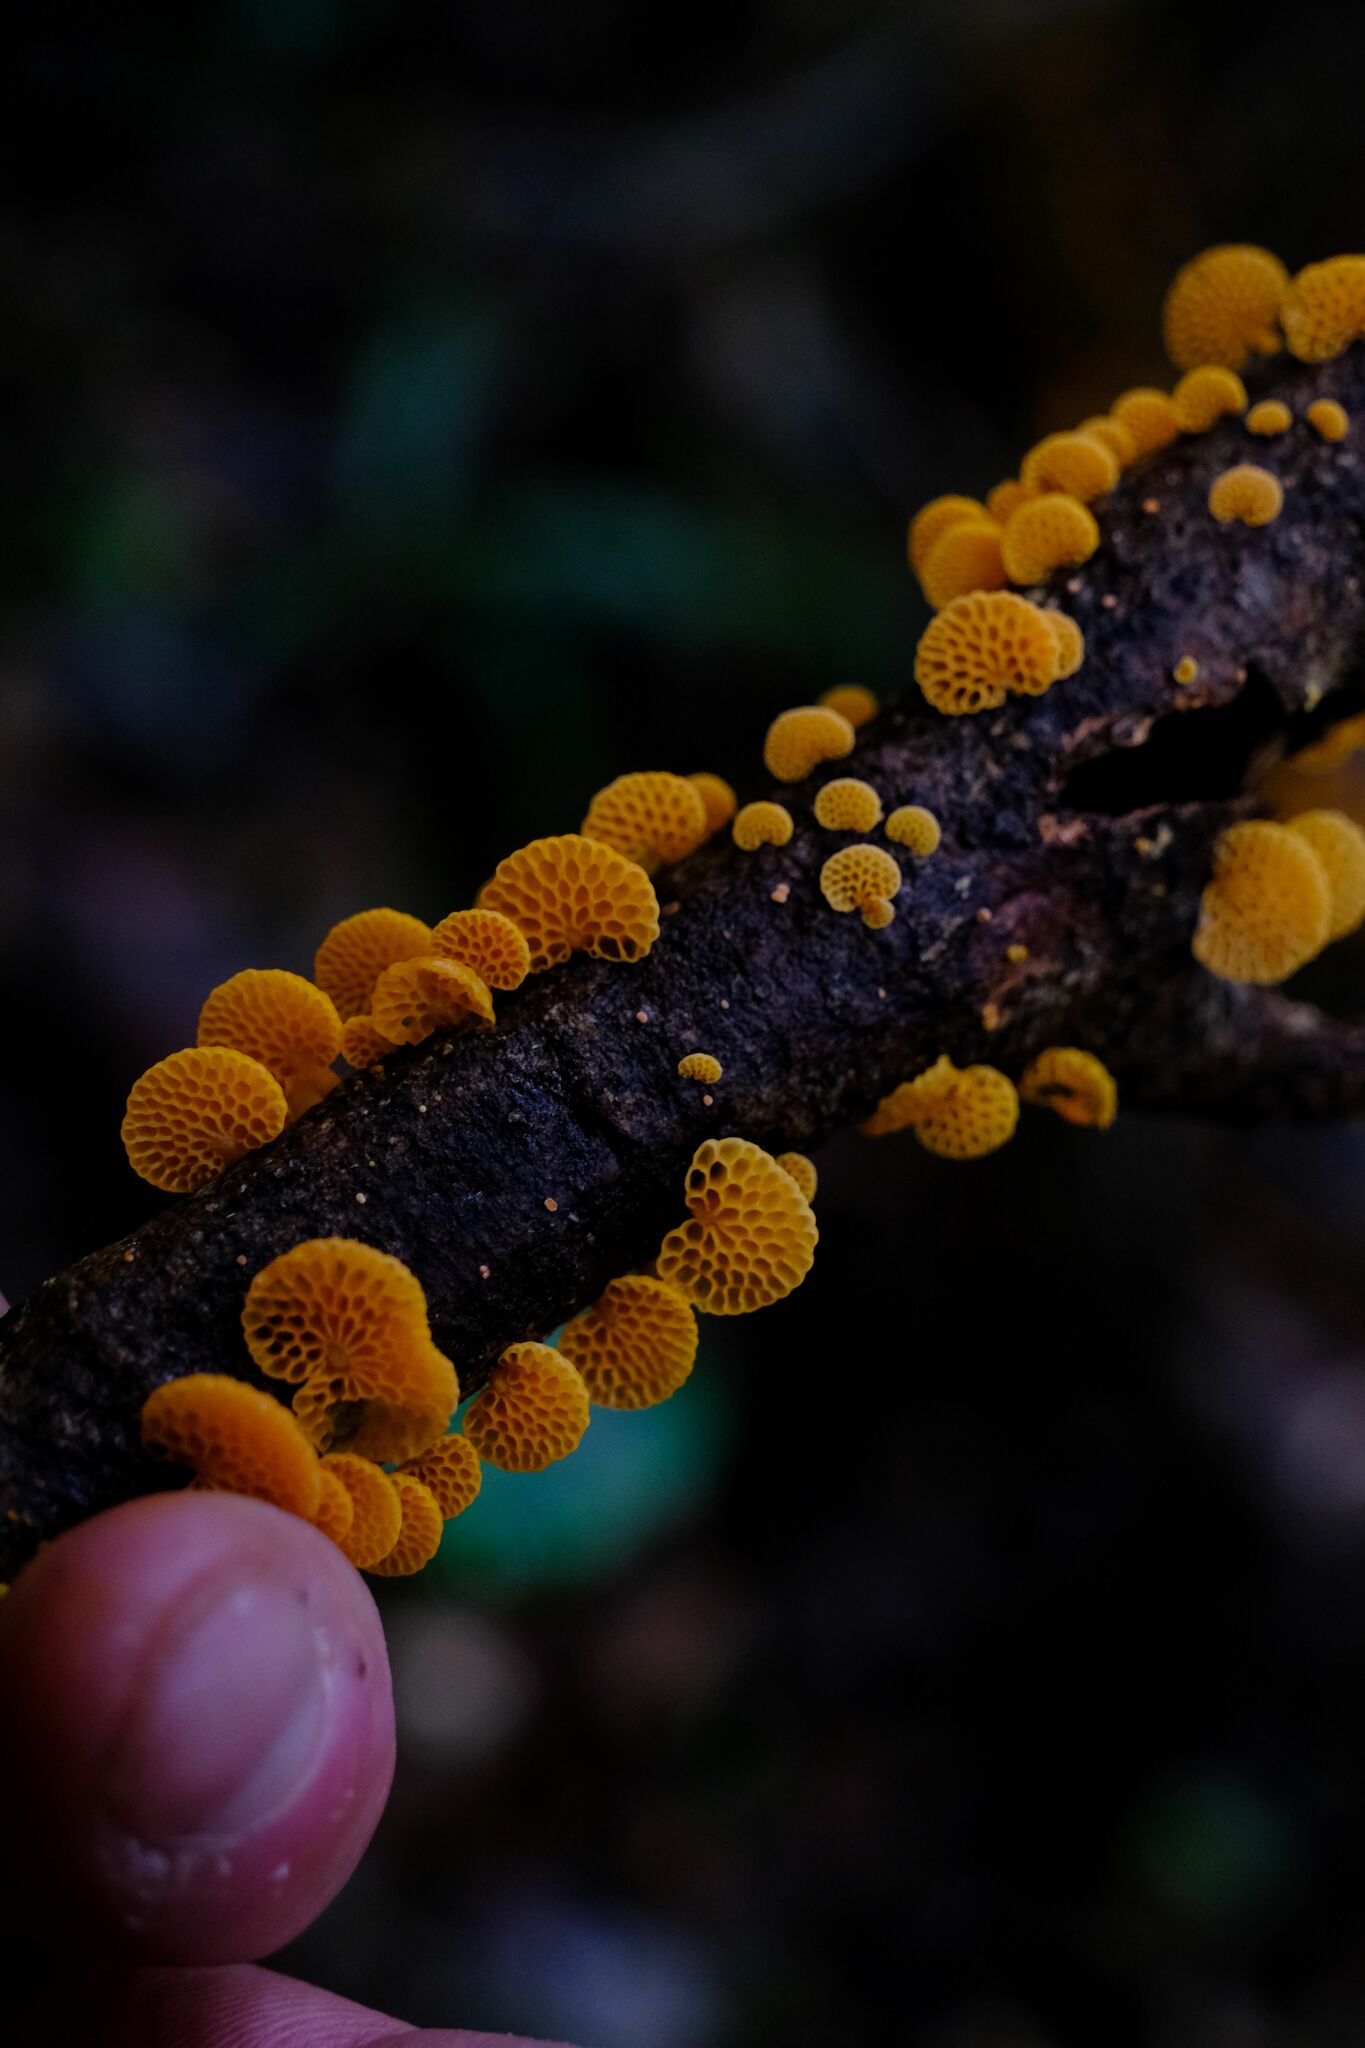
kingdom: Fungi
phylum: Basidiomycota
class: Agaricomycetes
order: Agaricales
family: Mycenaceae
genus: Favolaschia
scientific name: Favolaschia claudopus
